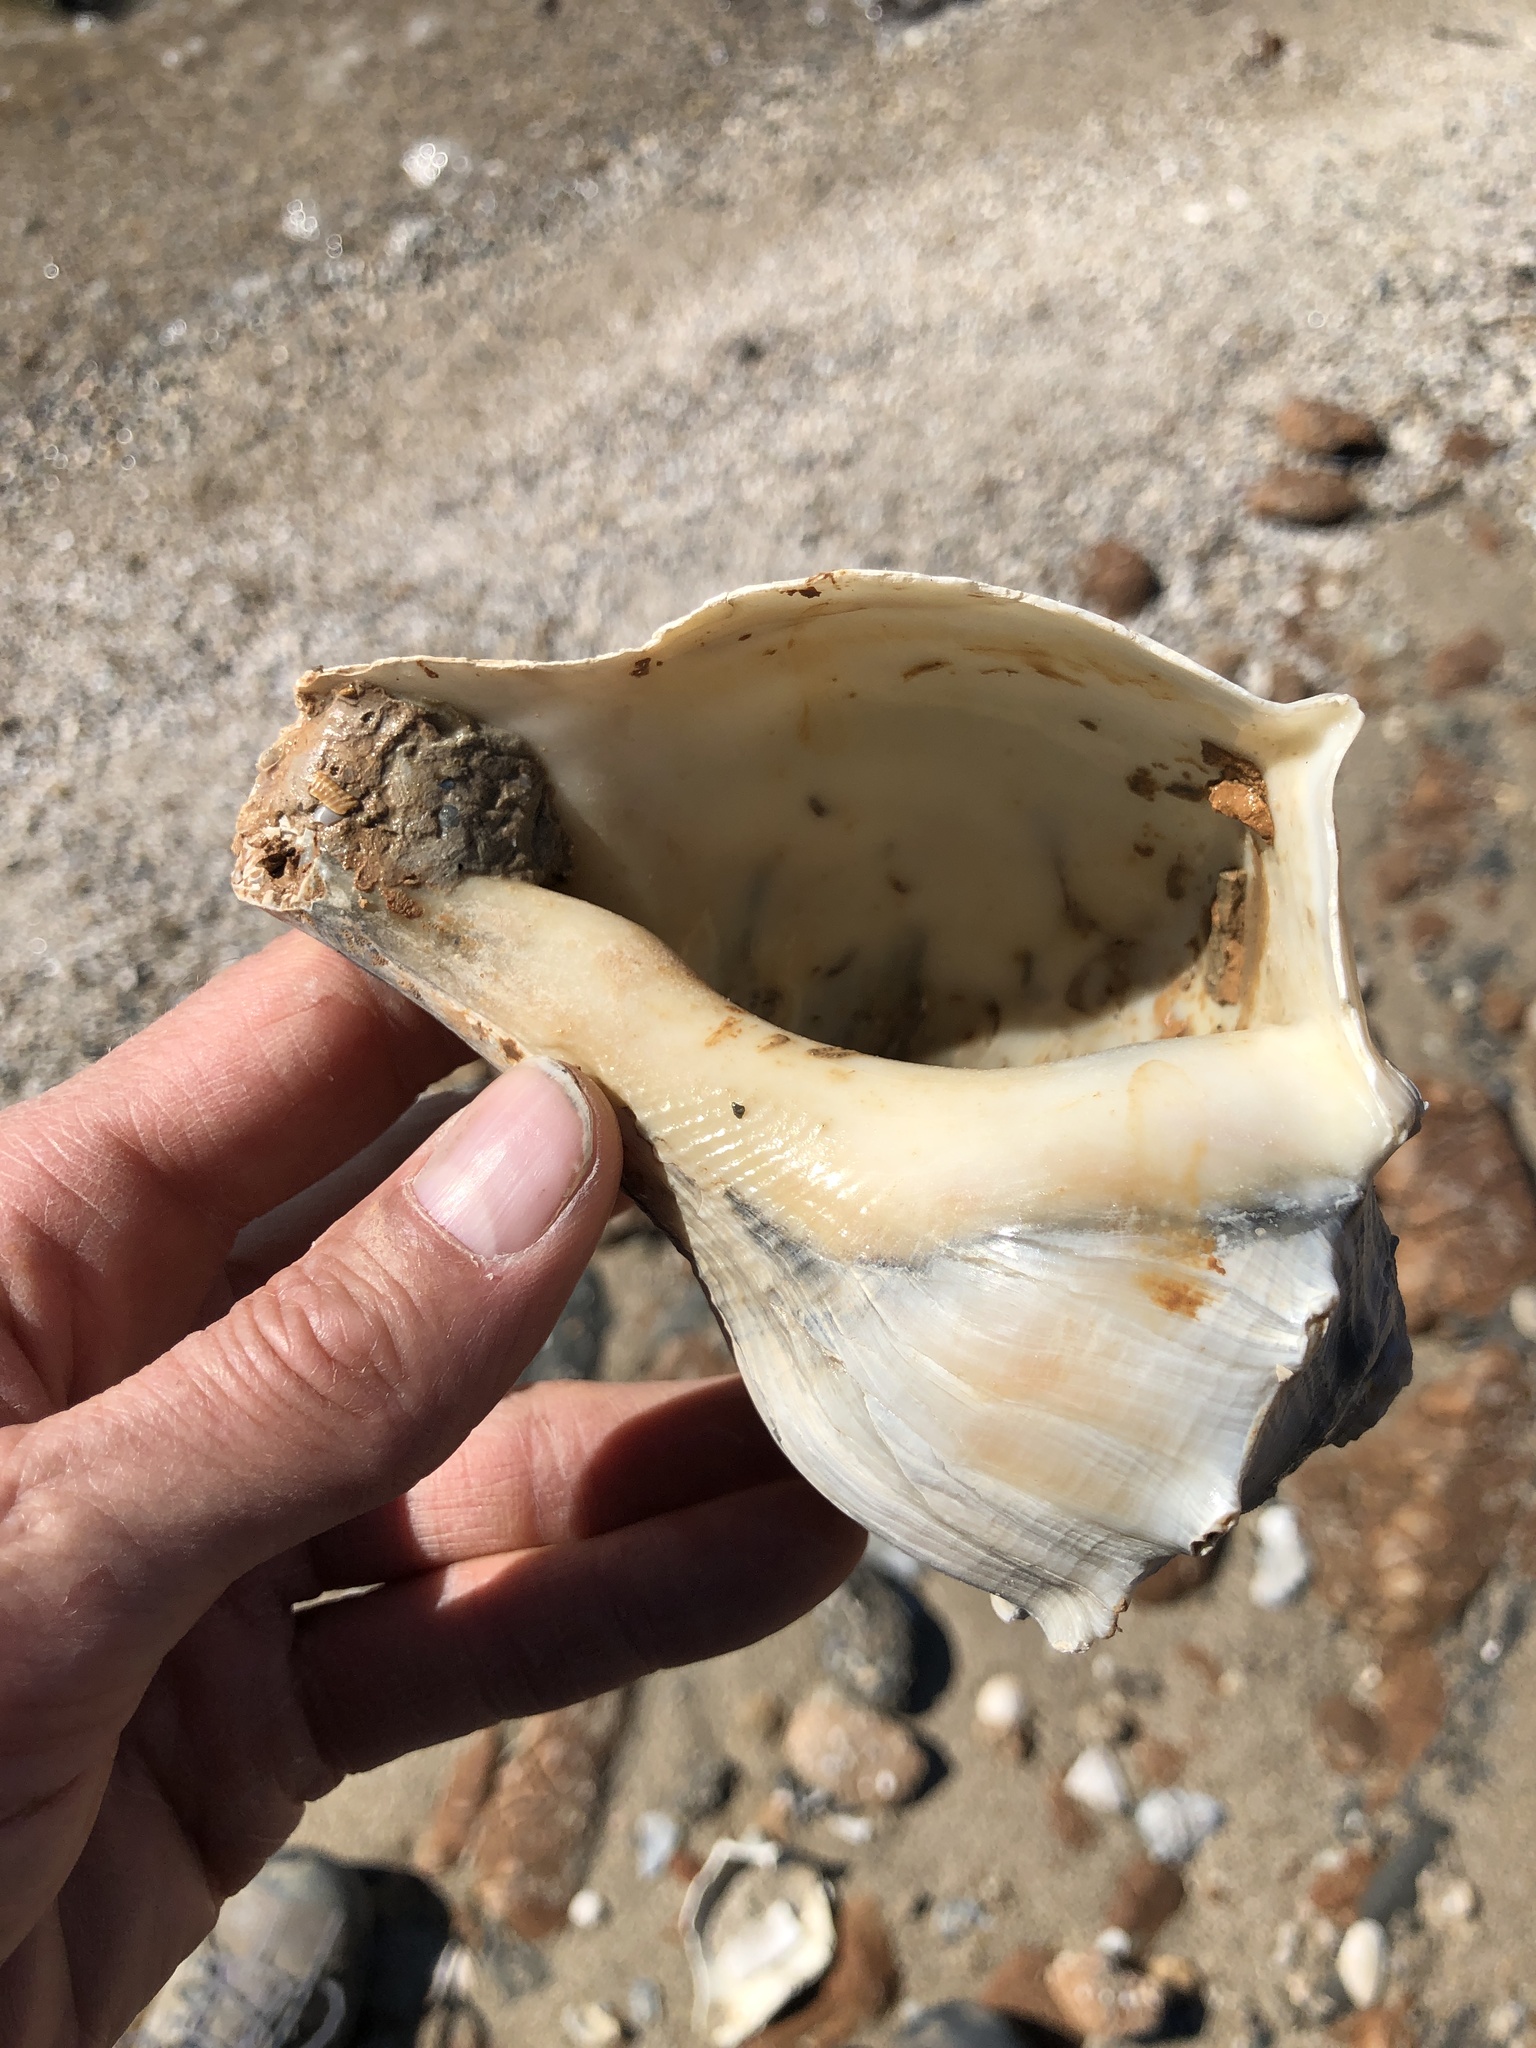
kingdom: Animalia
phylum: Mollusca
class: Gastropoda
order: Neogastropoda
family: Busyconidae
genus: Sinistrofulgur
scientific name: Sinistrofulgur pulleyi
